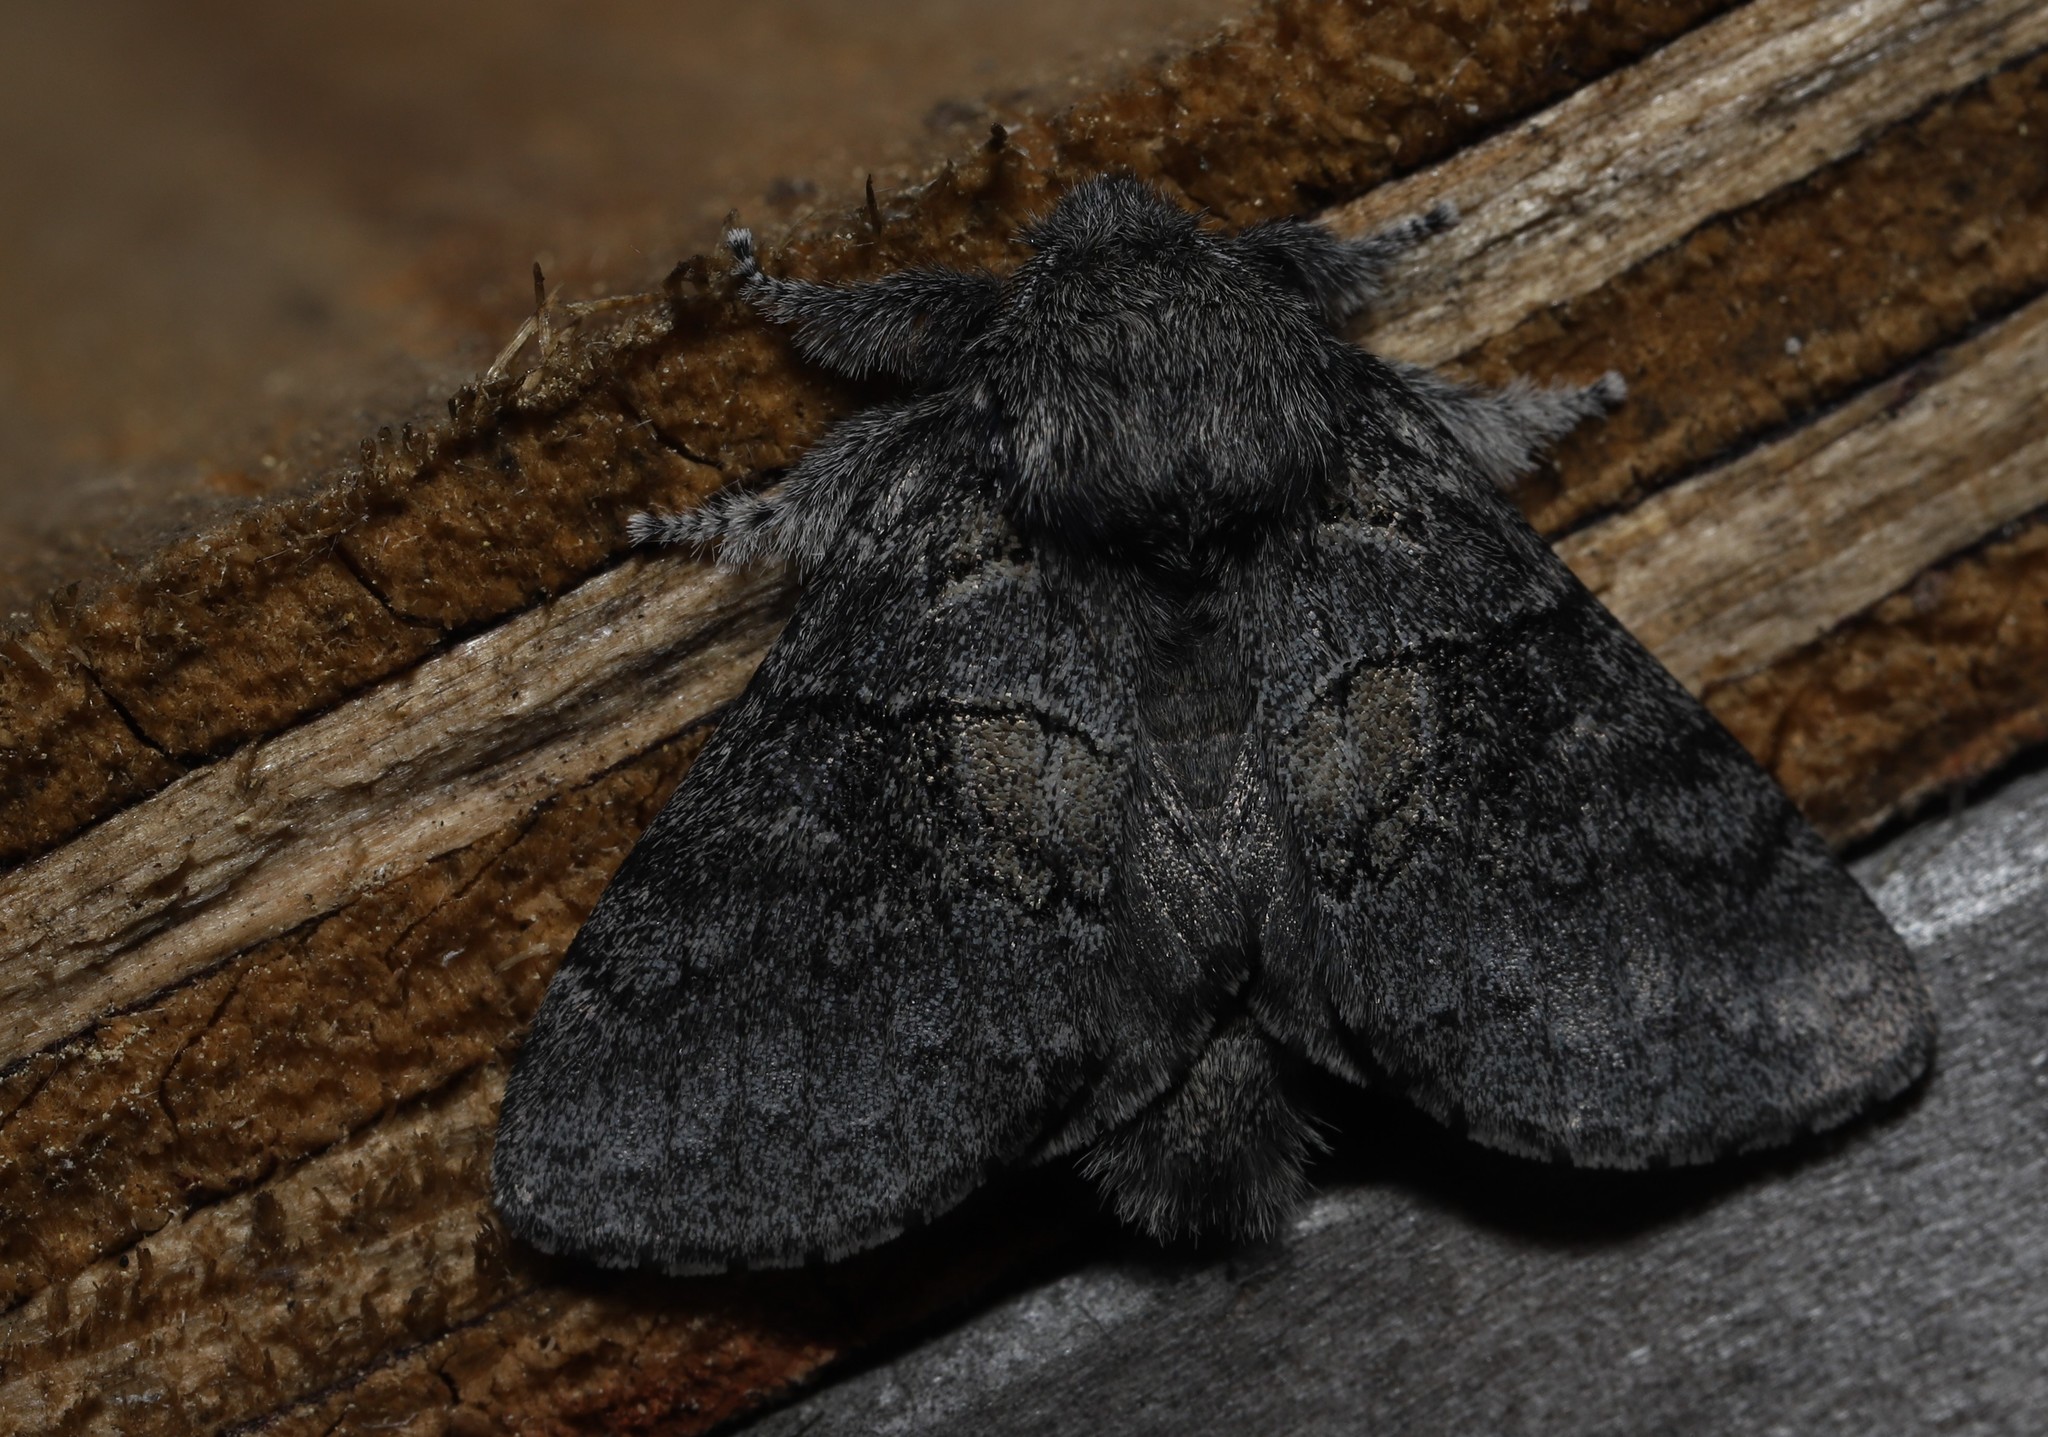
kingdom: Animalia
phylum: Arthropoda
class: Insecta
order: Lepidoptera
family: Notodontidae
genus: Gluphisia
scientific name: Gluphisia septentrionis
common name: Common gluphisia
